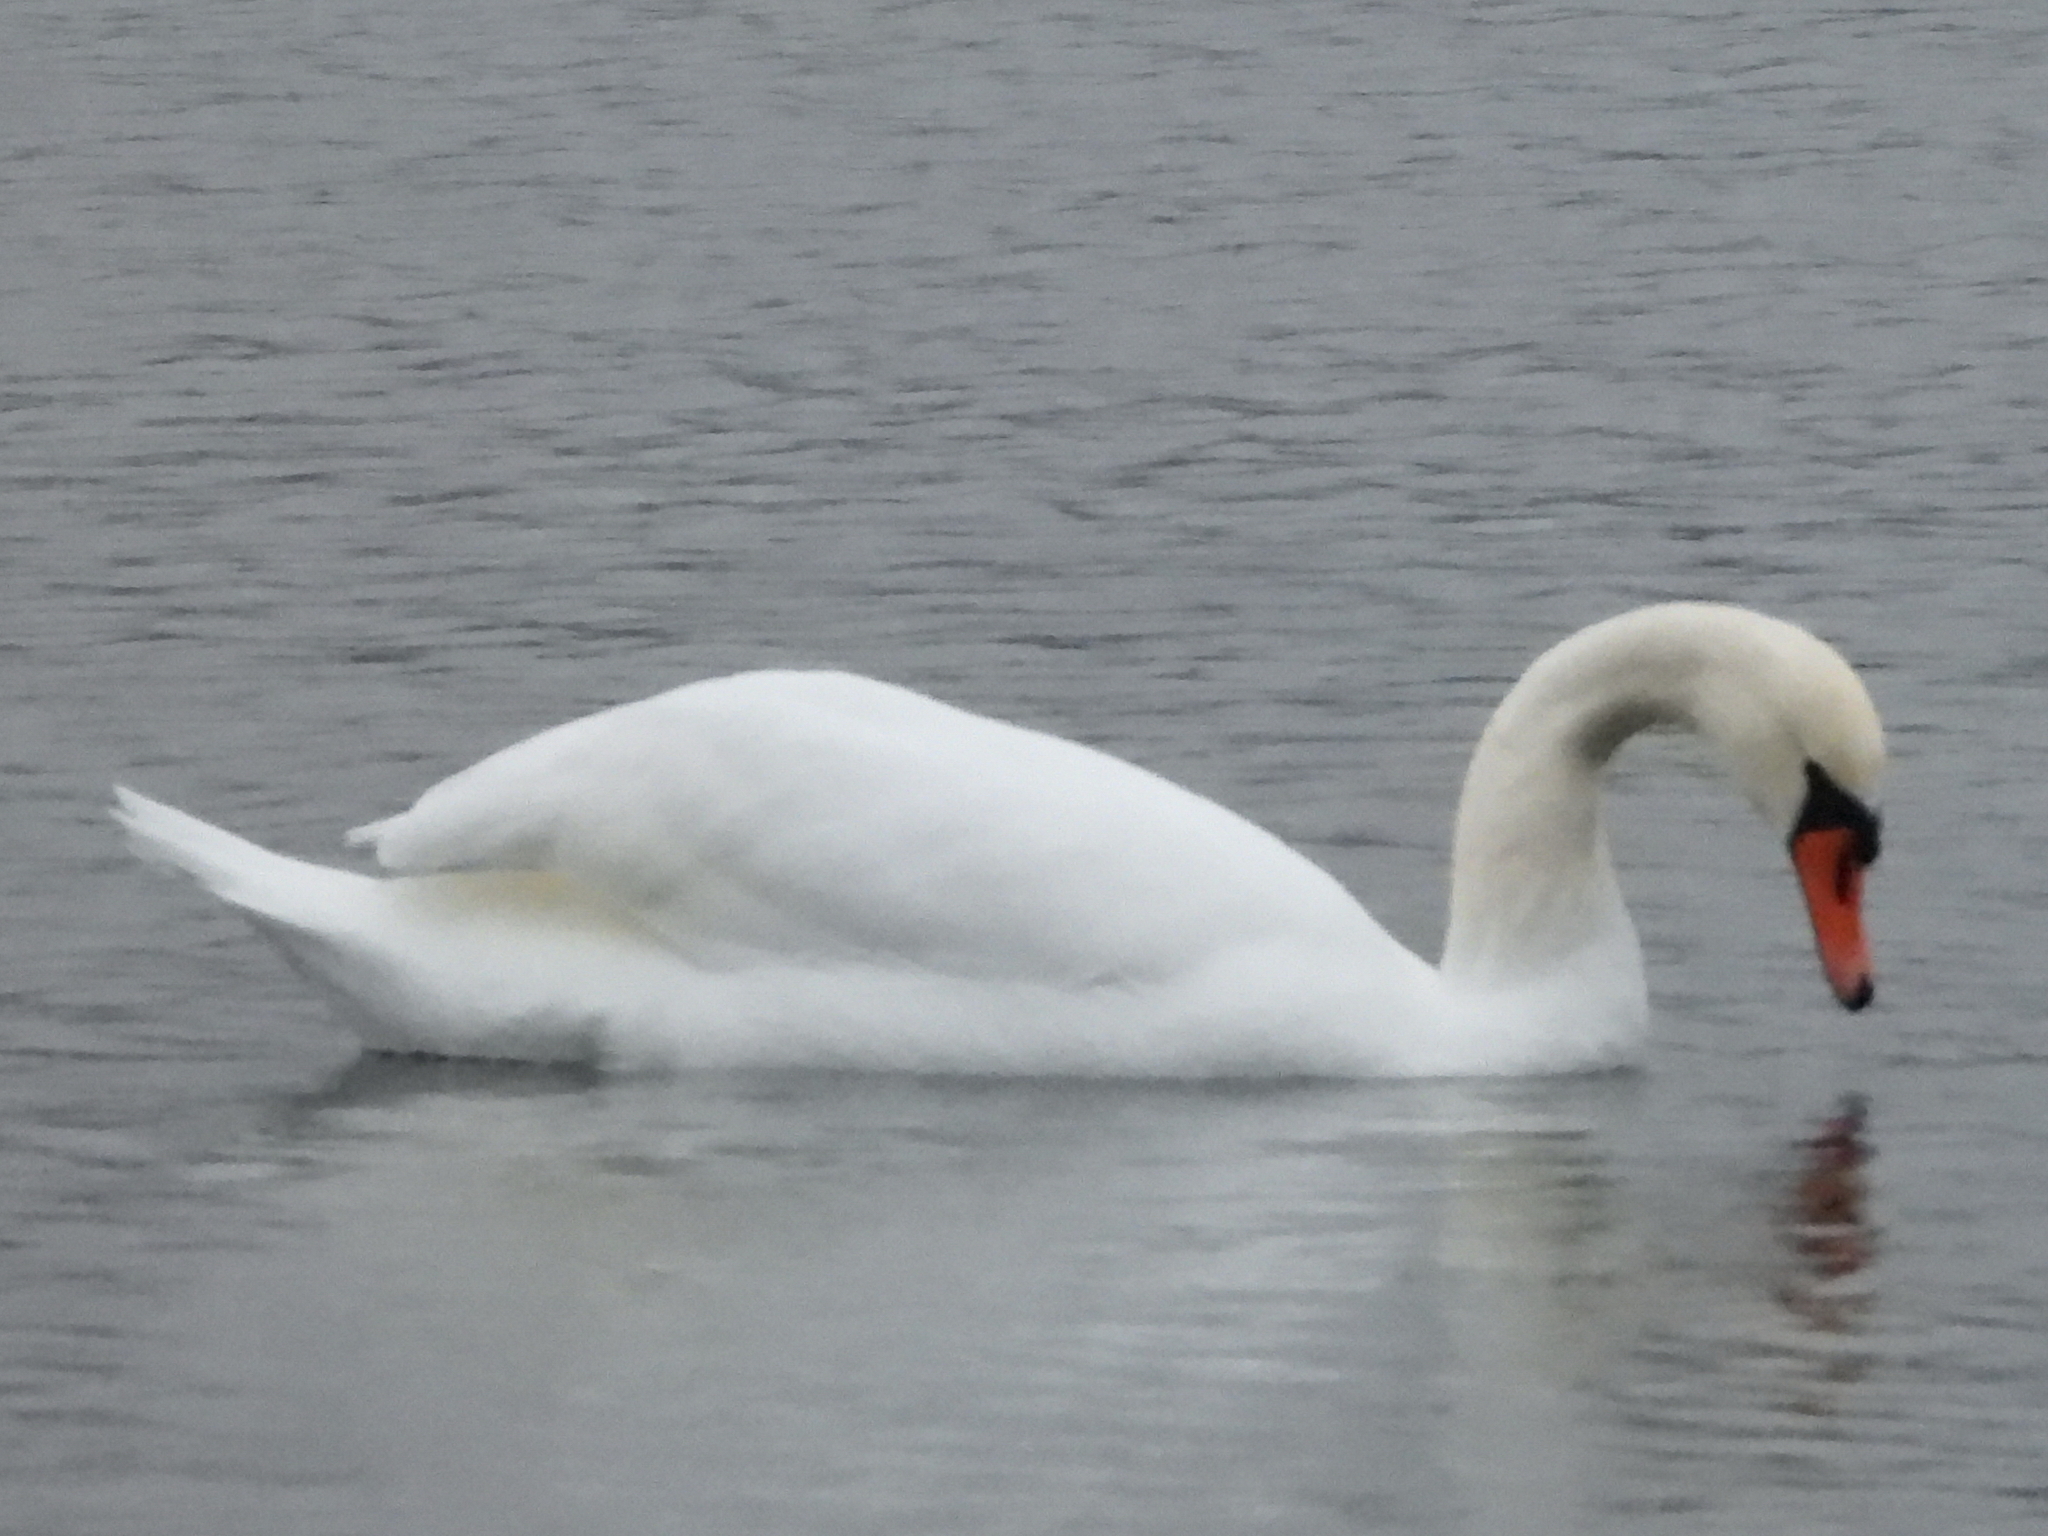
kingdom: Animalia
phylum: Chordata
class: Aves
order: Anseriformes
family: Anatidae
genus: Cygnus
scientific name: Cygnus olor
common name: Mute swan
